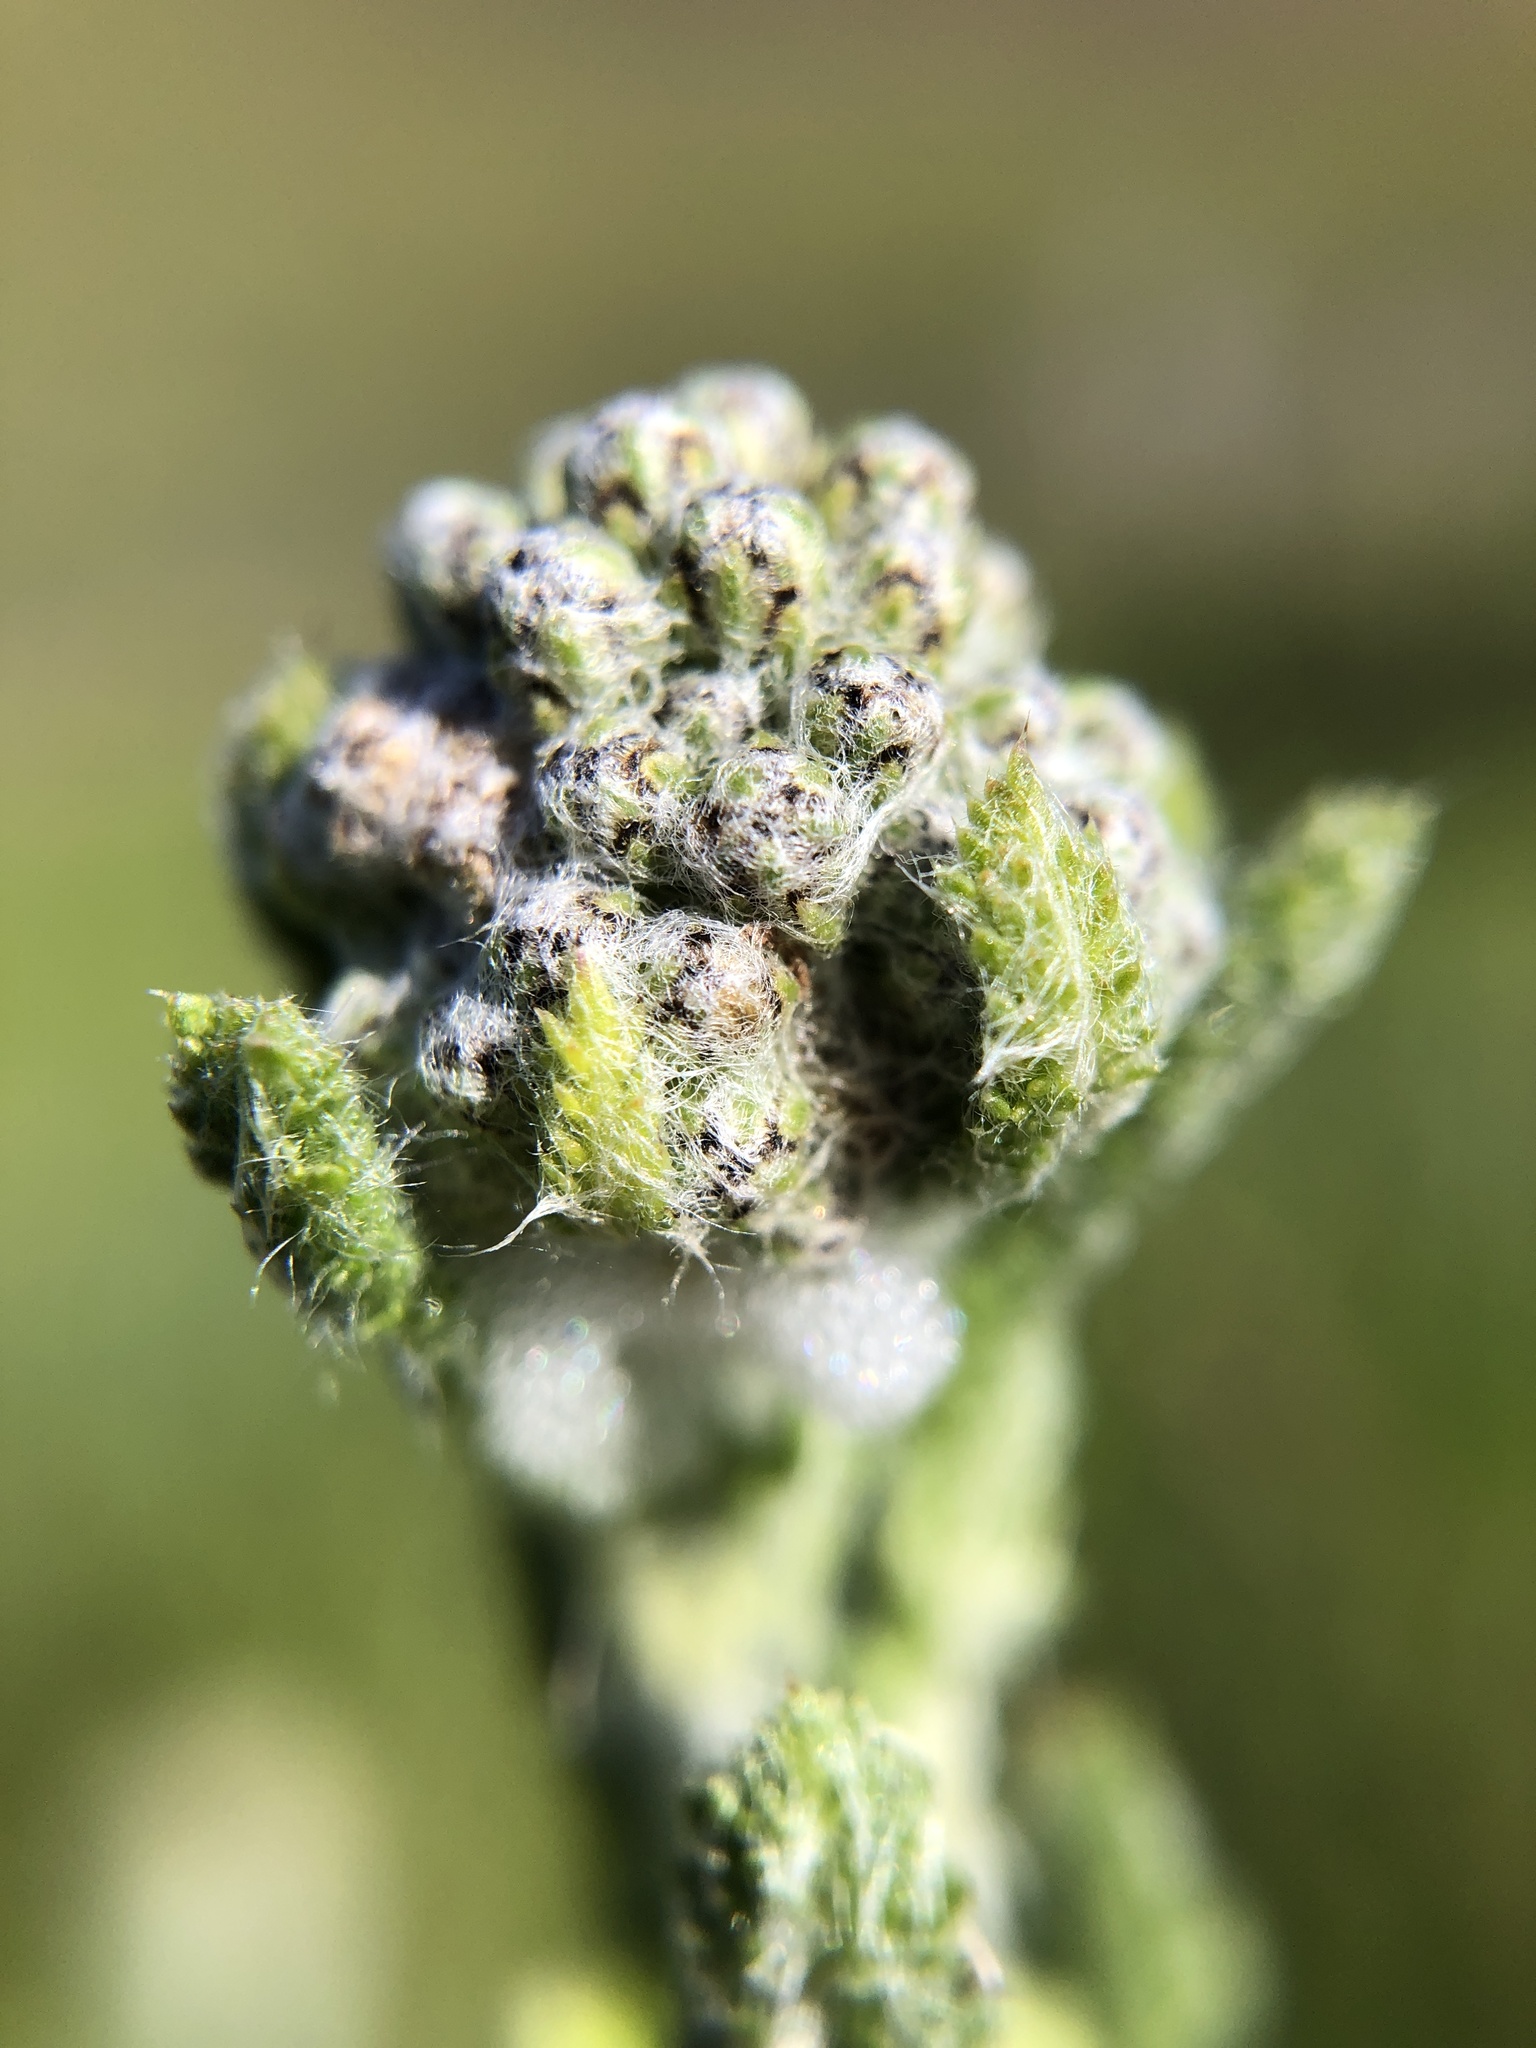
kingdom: Plantae
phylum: Tracheophyta
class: Magnoliopsida
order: Asterales
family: Asteraceae
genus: Achillea
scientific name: Achillea millefolium
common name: Yarrow
